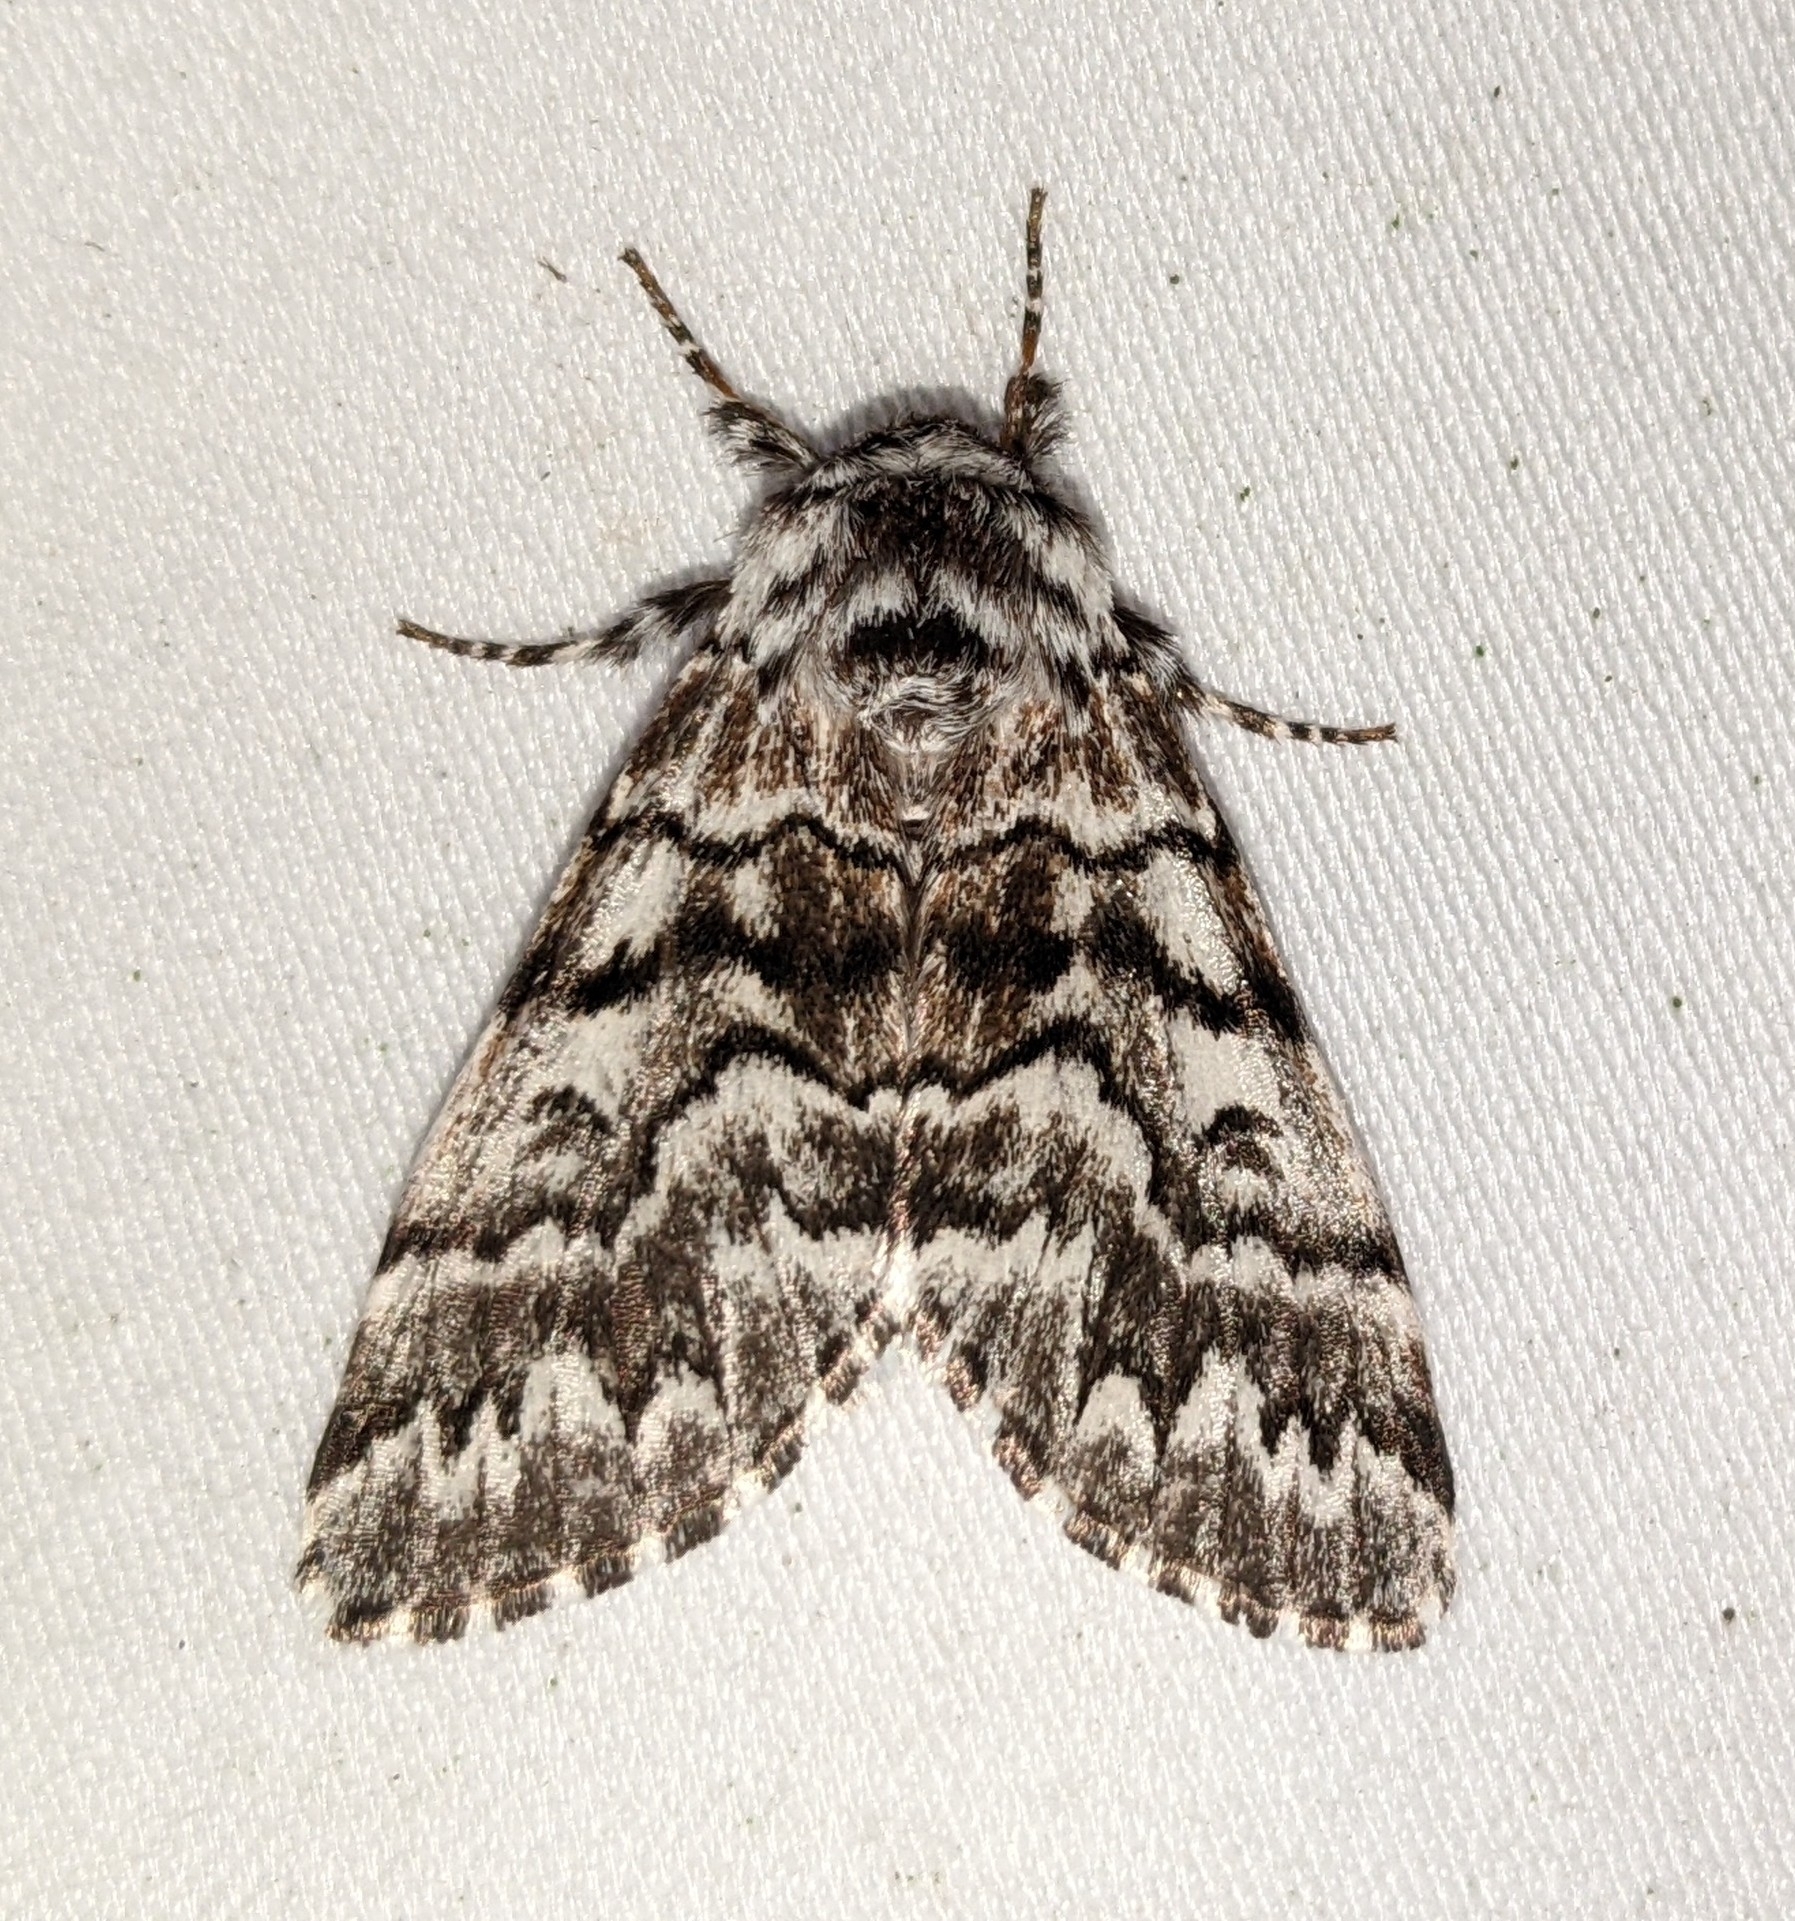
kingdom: Animalia
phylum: Arthropoda
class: Insecta
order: Lepidoptera
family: Noctuidae
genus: Panthea
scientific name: Panthea virginarius
